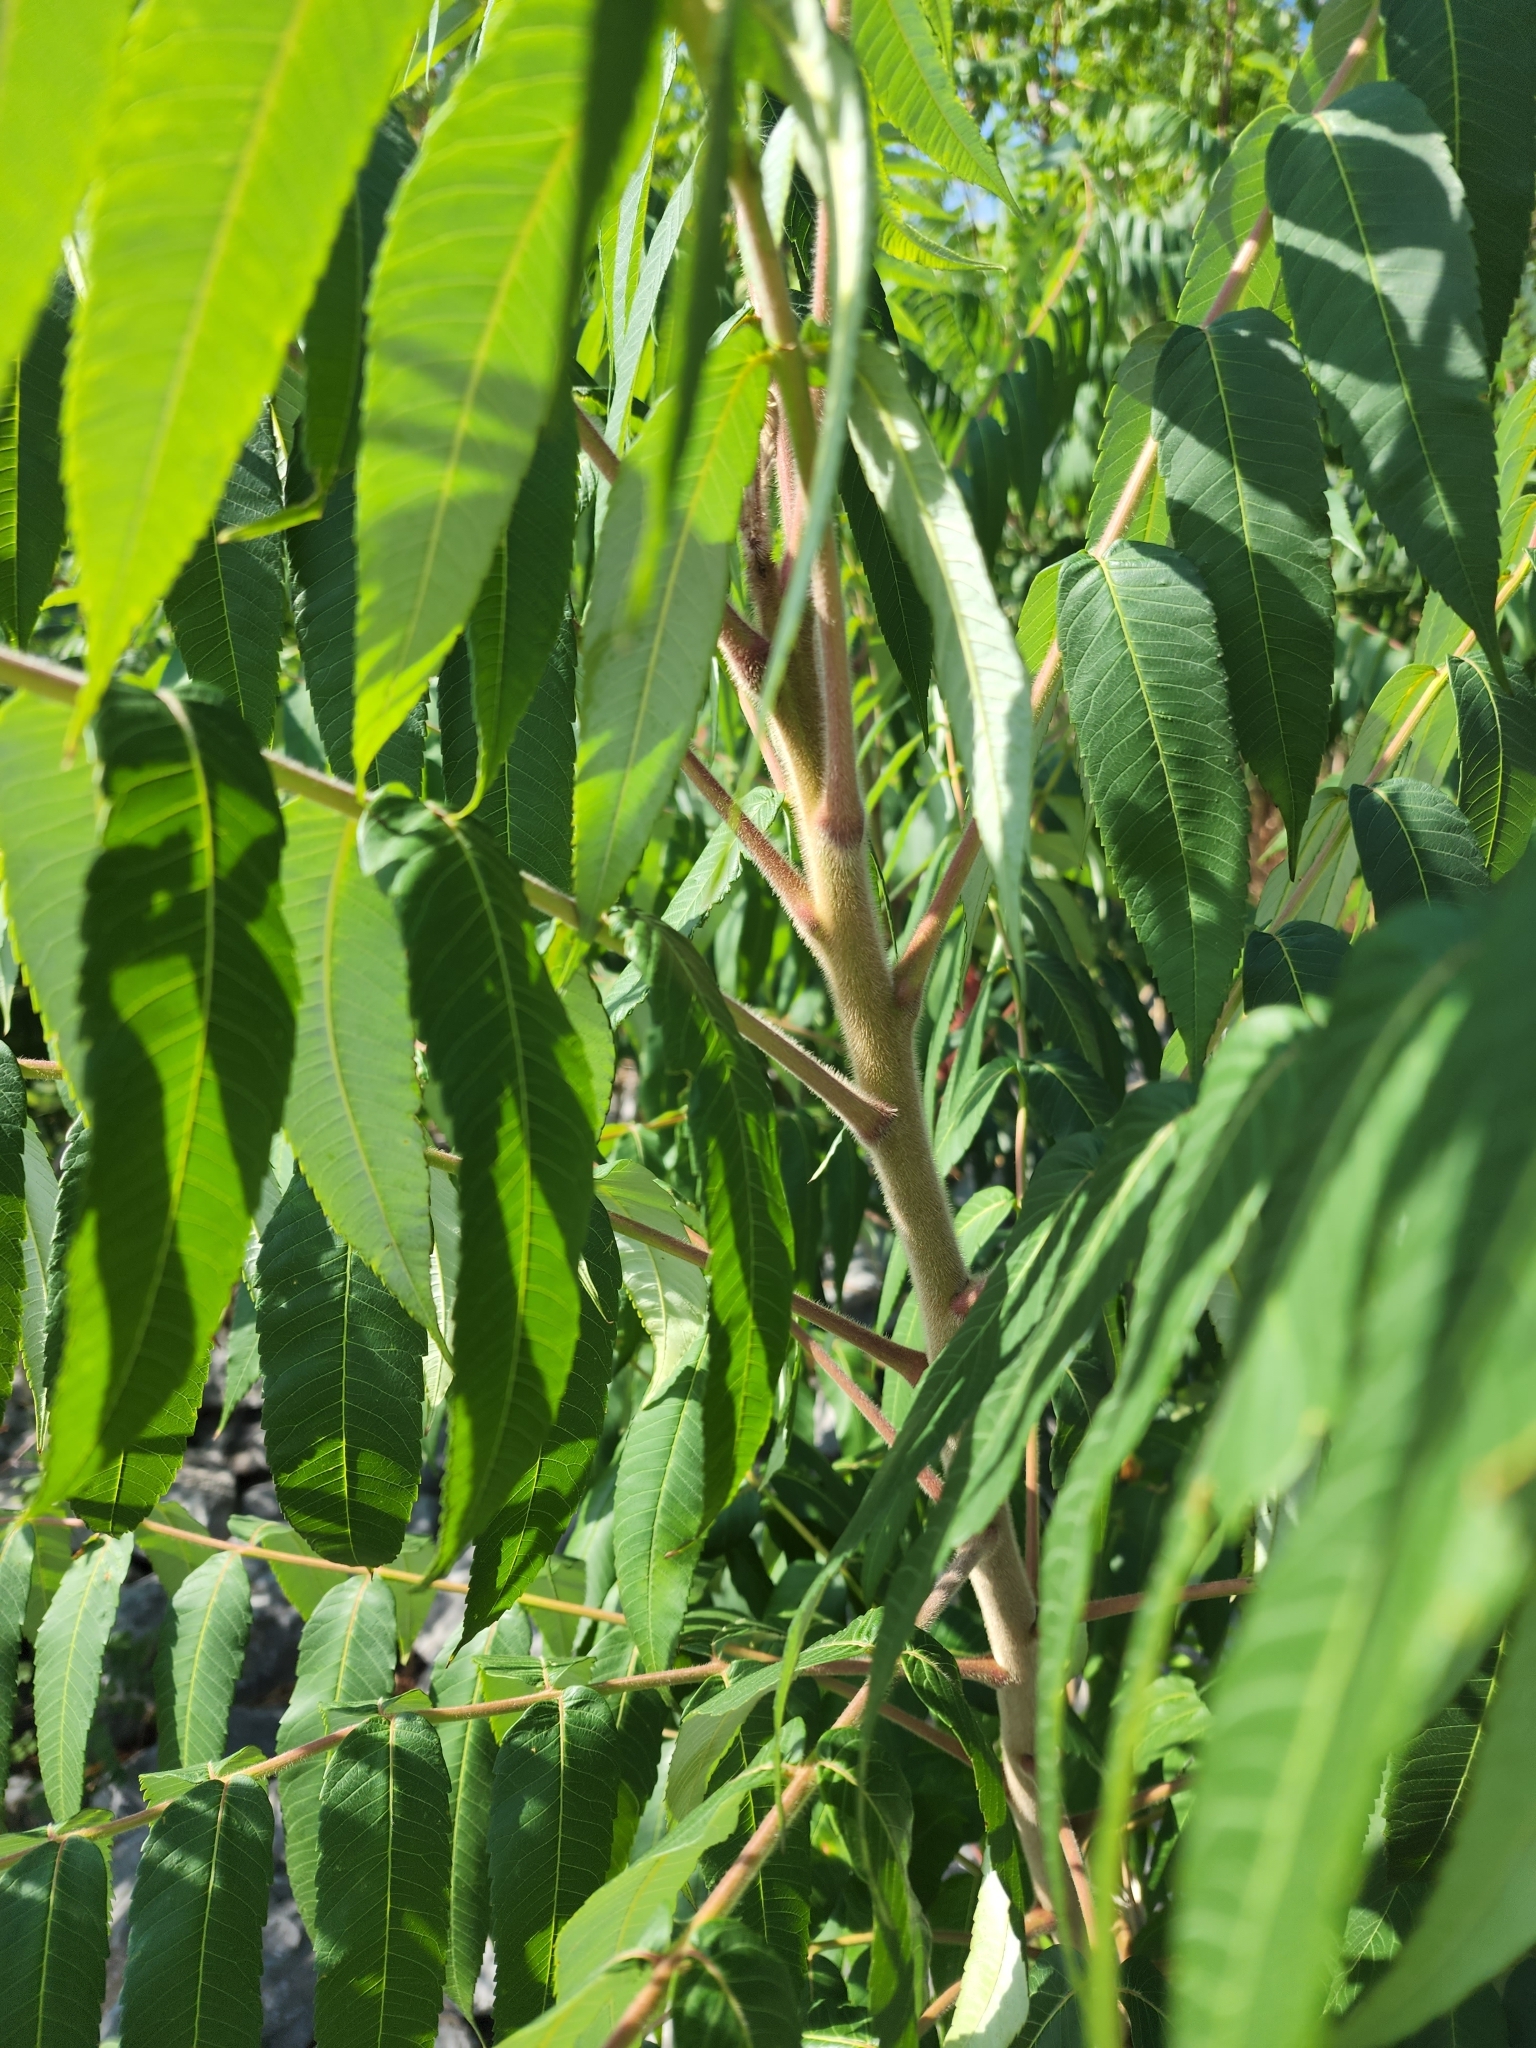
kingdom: Plantae
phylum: Tracheophyta
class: Magnoliopsida
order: Sapindales
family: Anacardiaceae
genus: Rhus
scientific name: Rhus typhina
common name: Staghorn sumac
